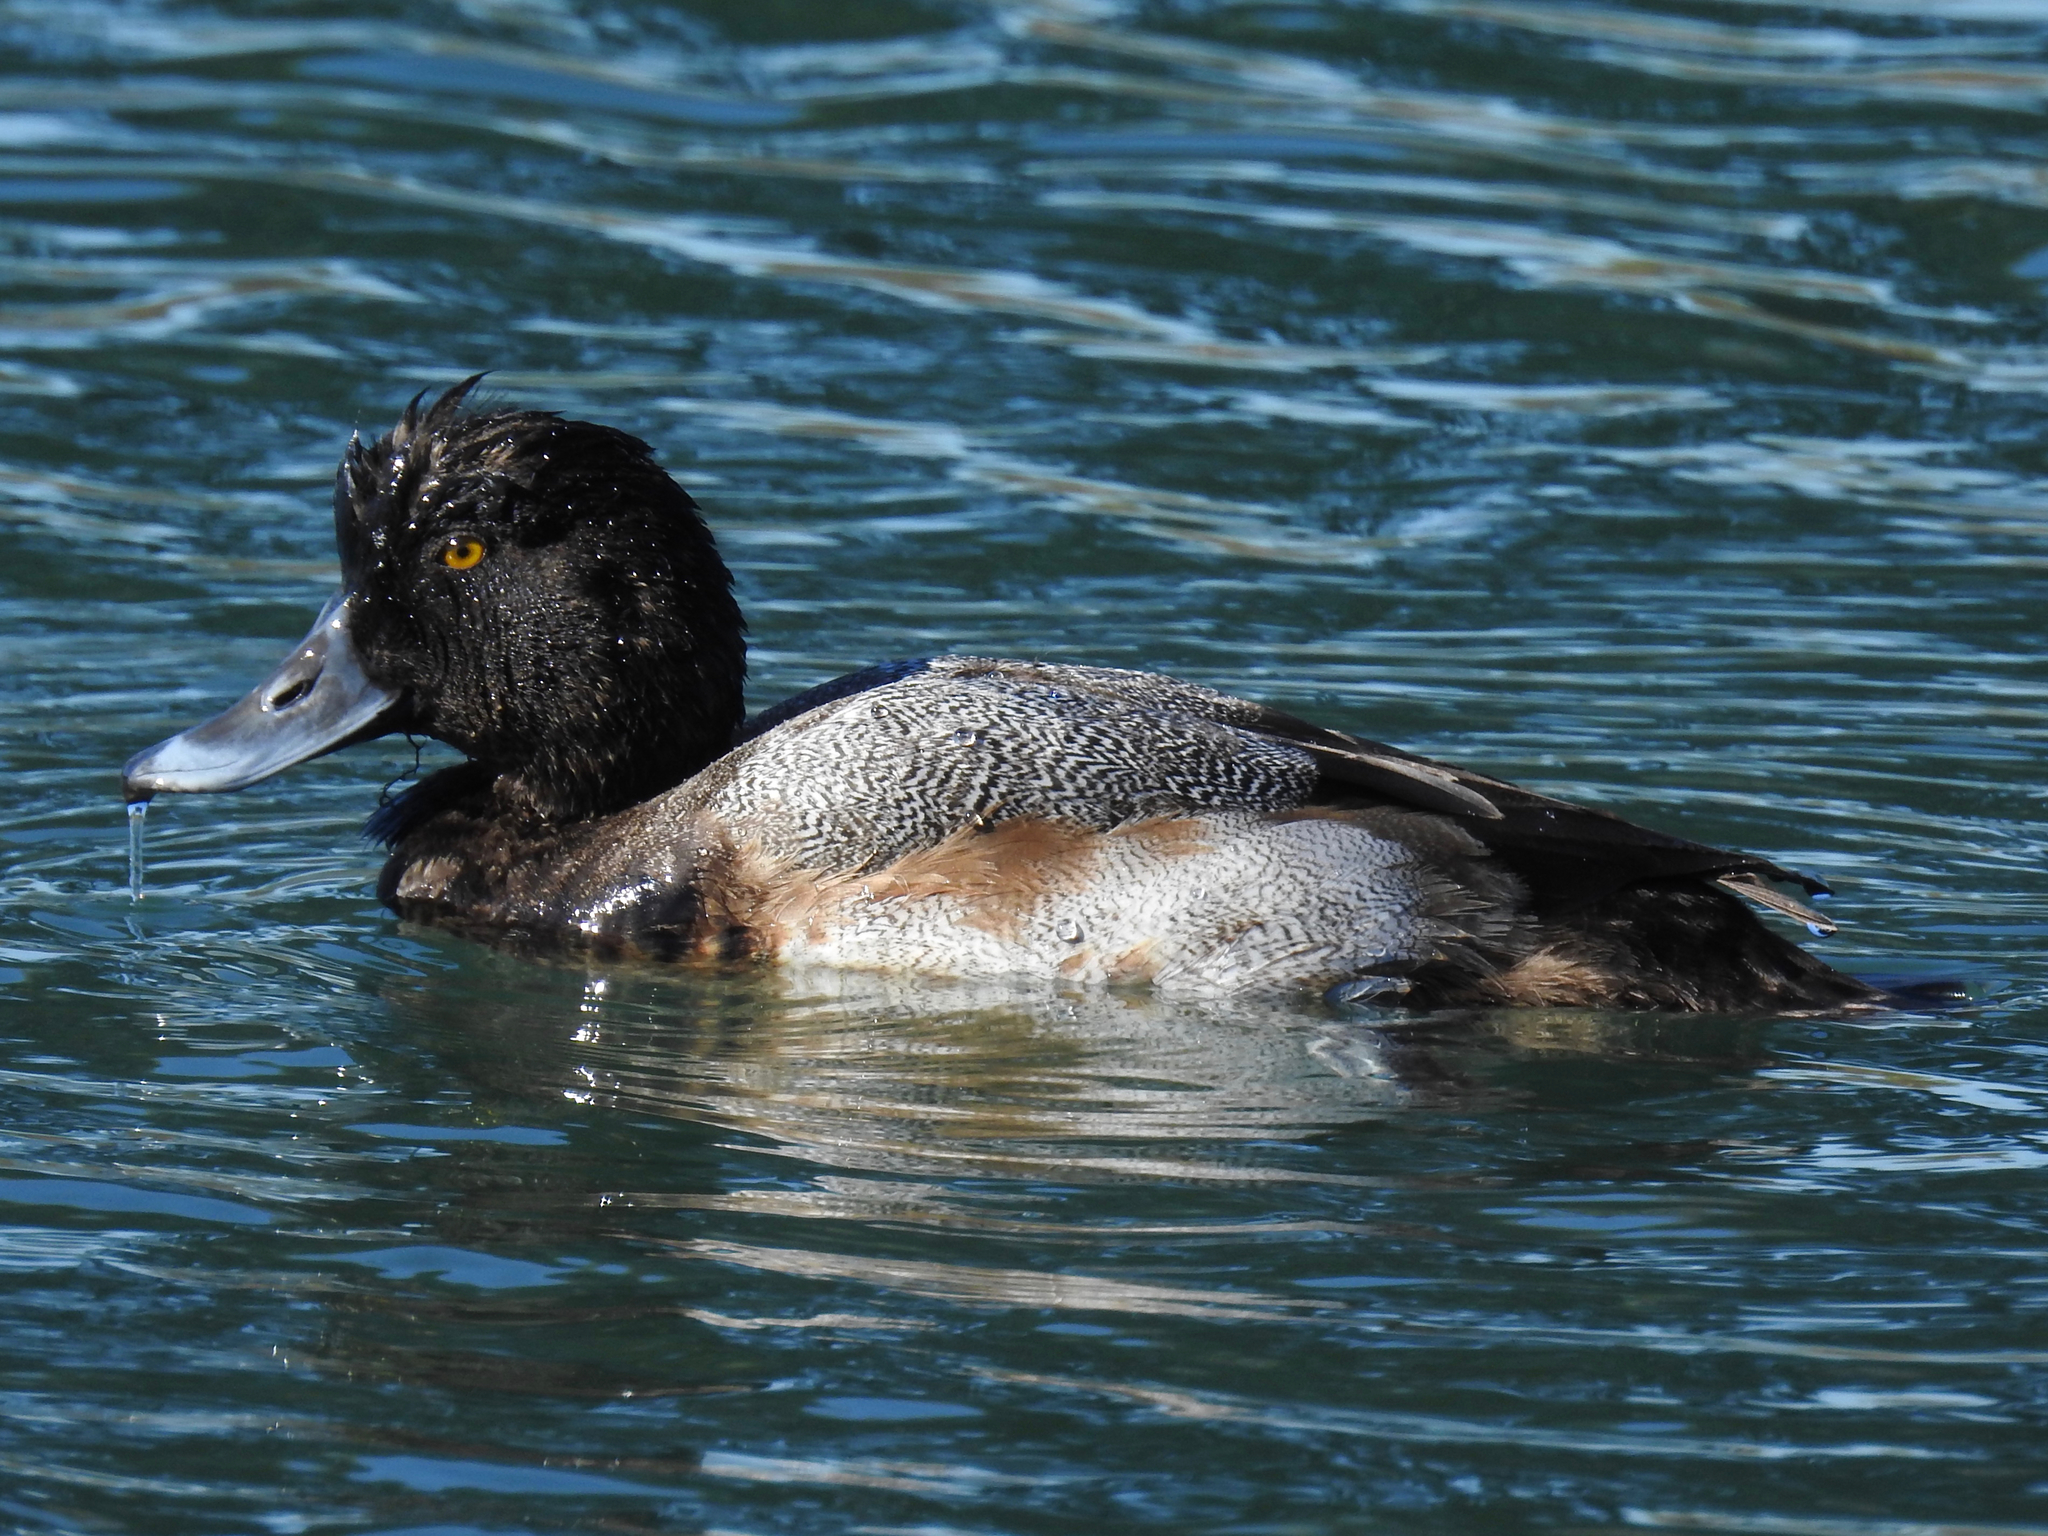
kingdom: Animalia
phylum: Chordata
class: Aves
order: Anseriformes
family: Anatidae
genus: Aythya
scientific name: Aythya affinis
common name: Lesser scaup
